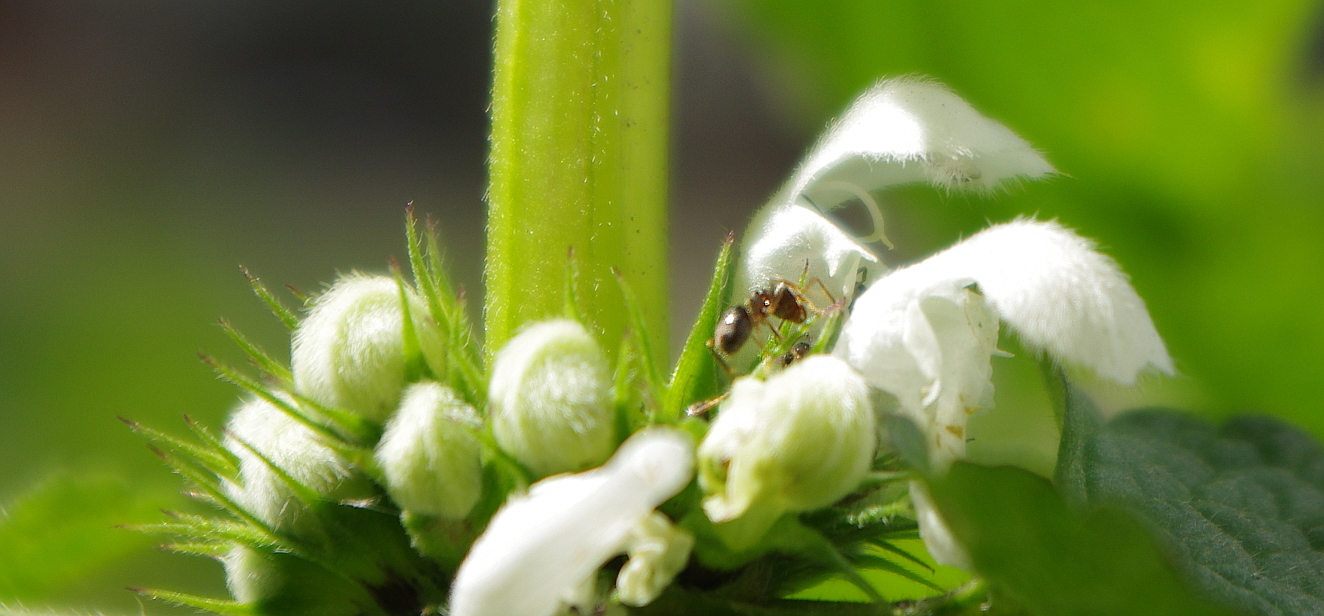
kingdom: Animalia
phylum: Arthropoda
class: Insecta
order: Hymenoptera
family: Formicidae
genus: Lasius
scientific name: Lasius
